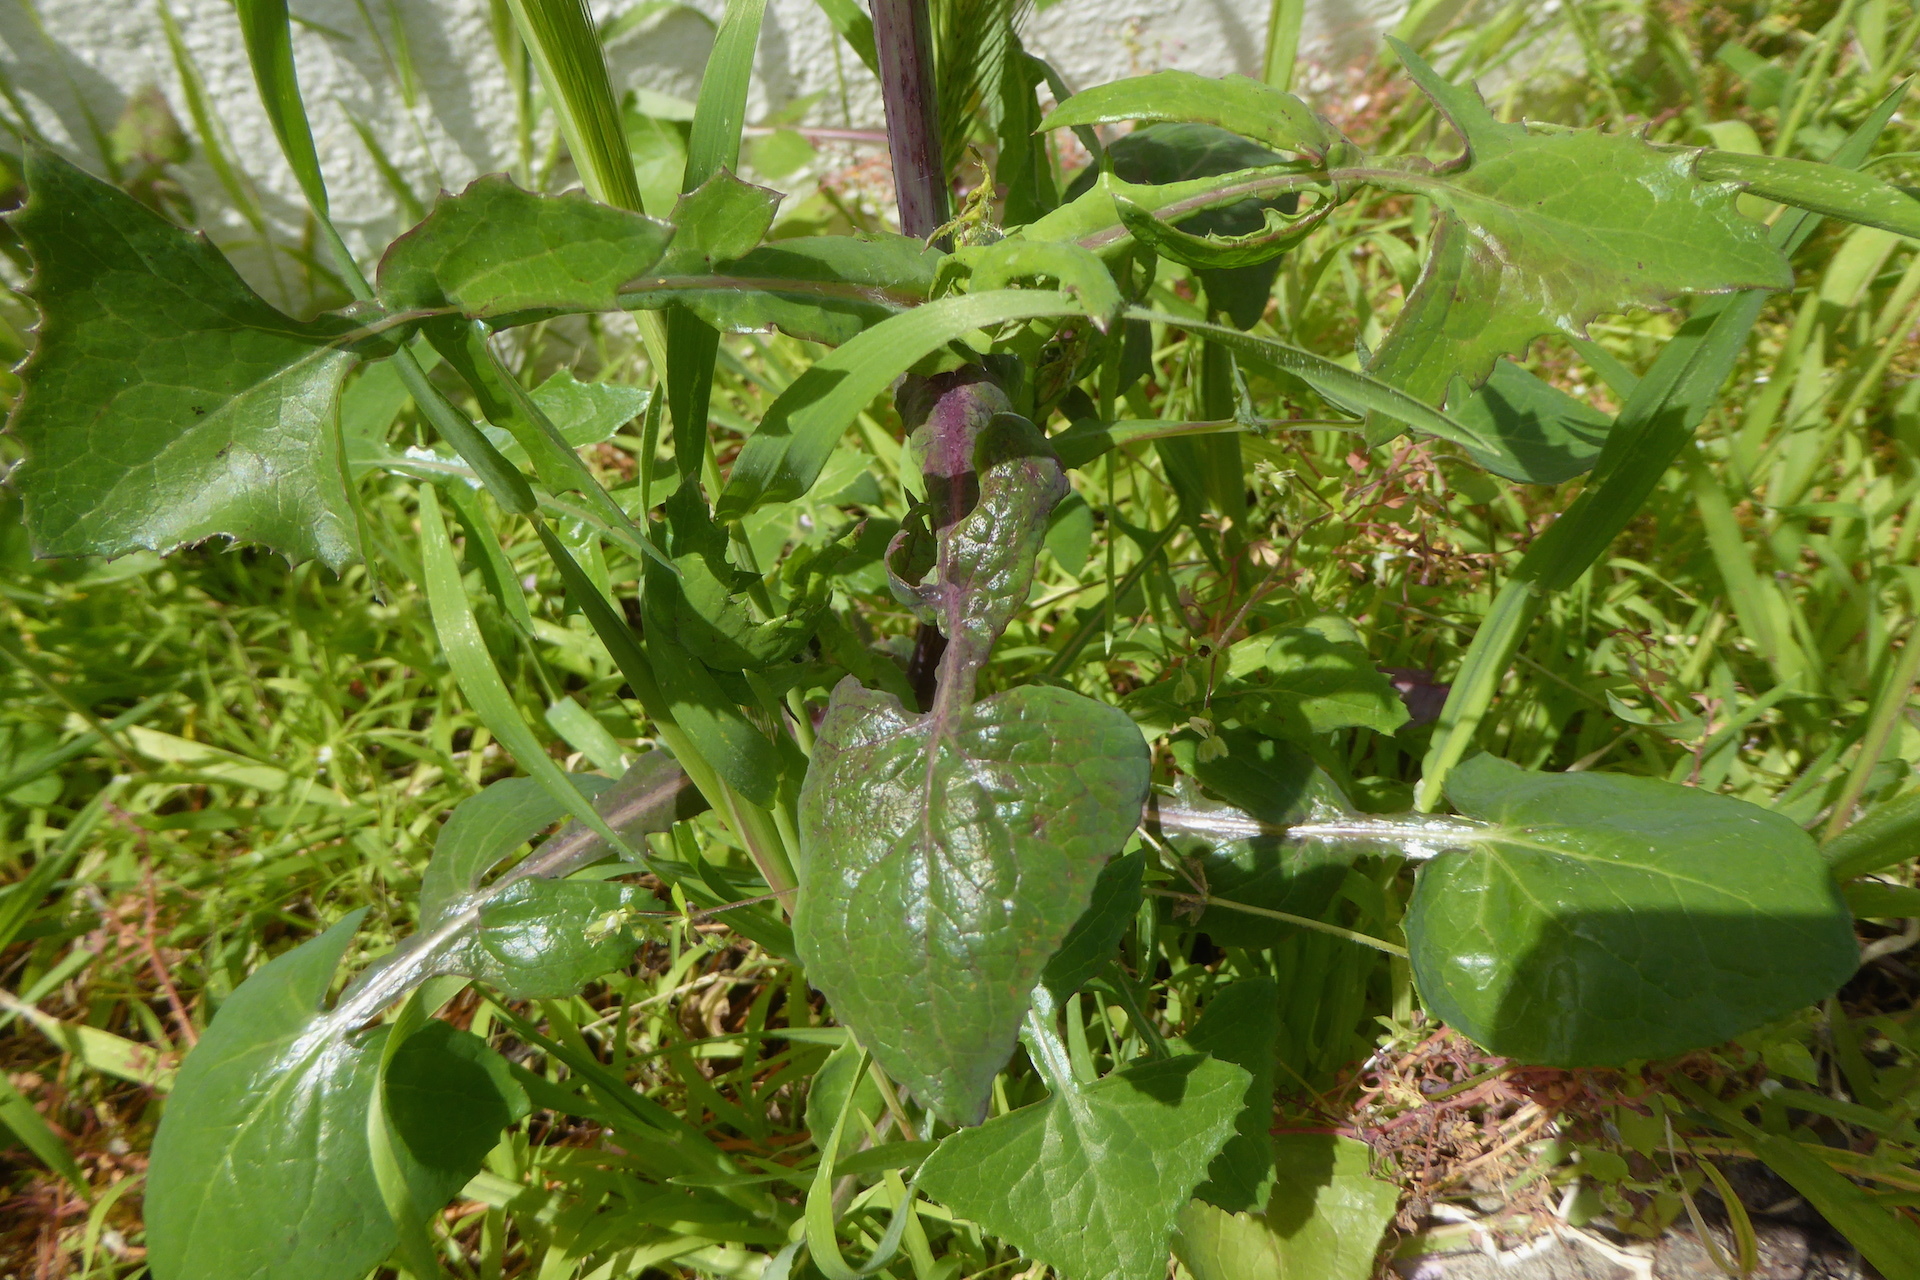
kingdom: Plantae
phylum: Tracheophyta
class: Magnoliopsida
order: Asterales
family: Asteraceae
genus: Sonchus
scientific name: Sonchus oleraceus
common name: Common sowthistle
